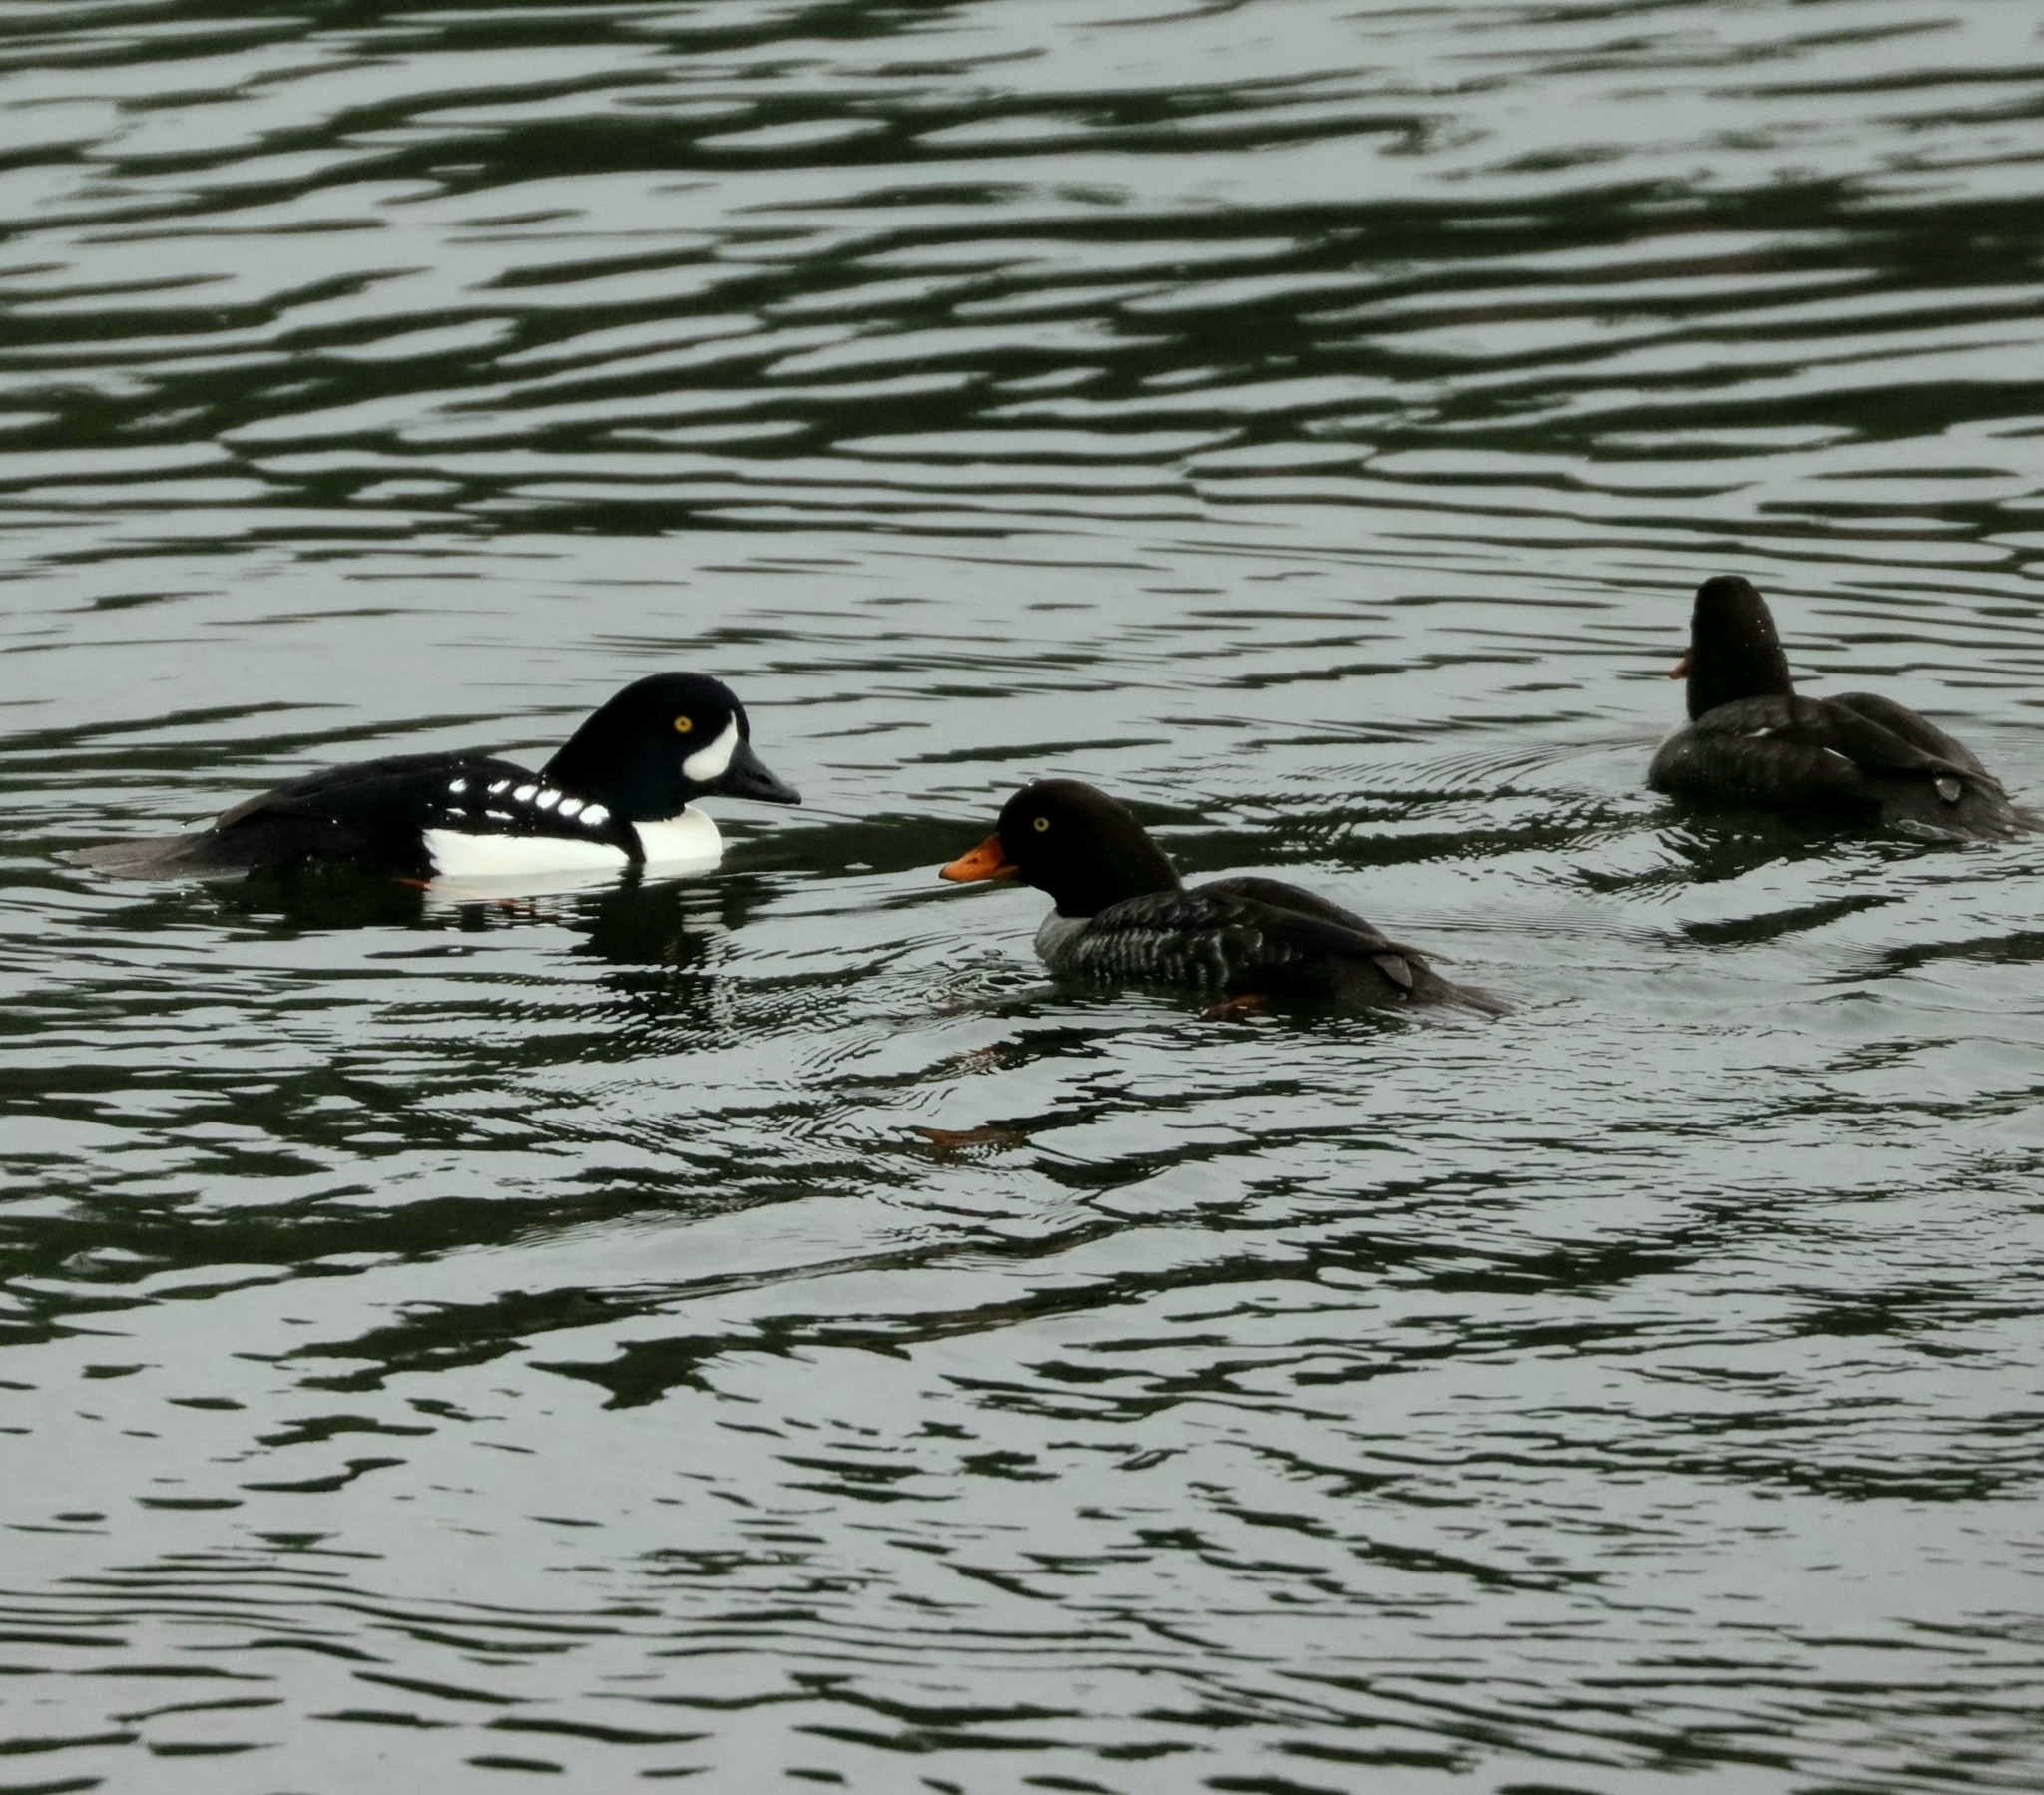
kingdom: Animalia
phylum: Chordata
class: Aves
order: Anseriformes
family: Anatidae
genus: Bucephala
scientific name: Bucephala islandica
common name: Barrow's goldeneye
